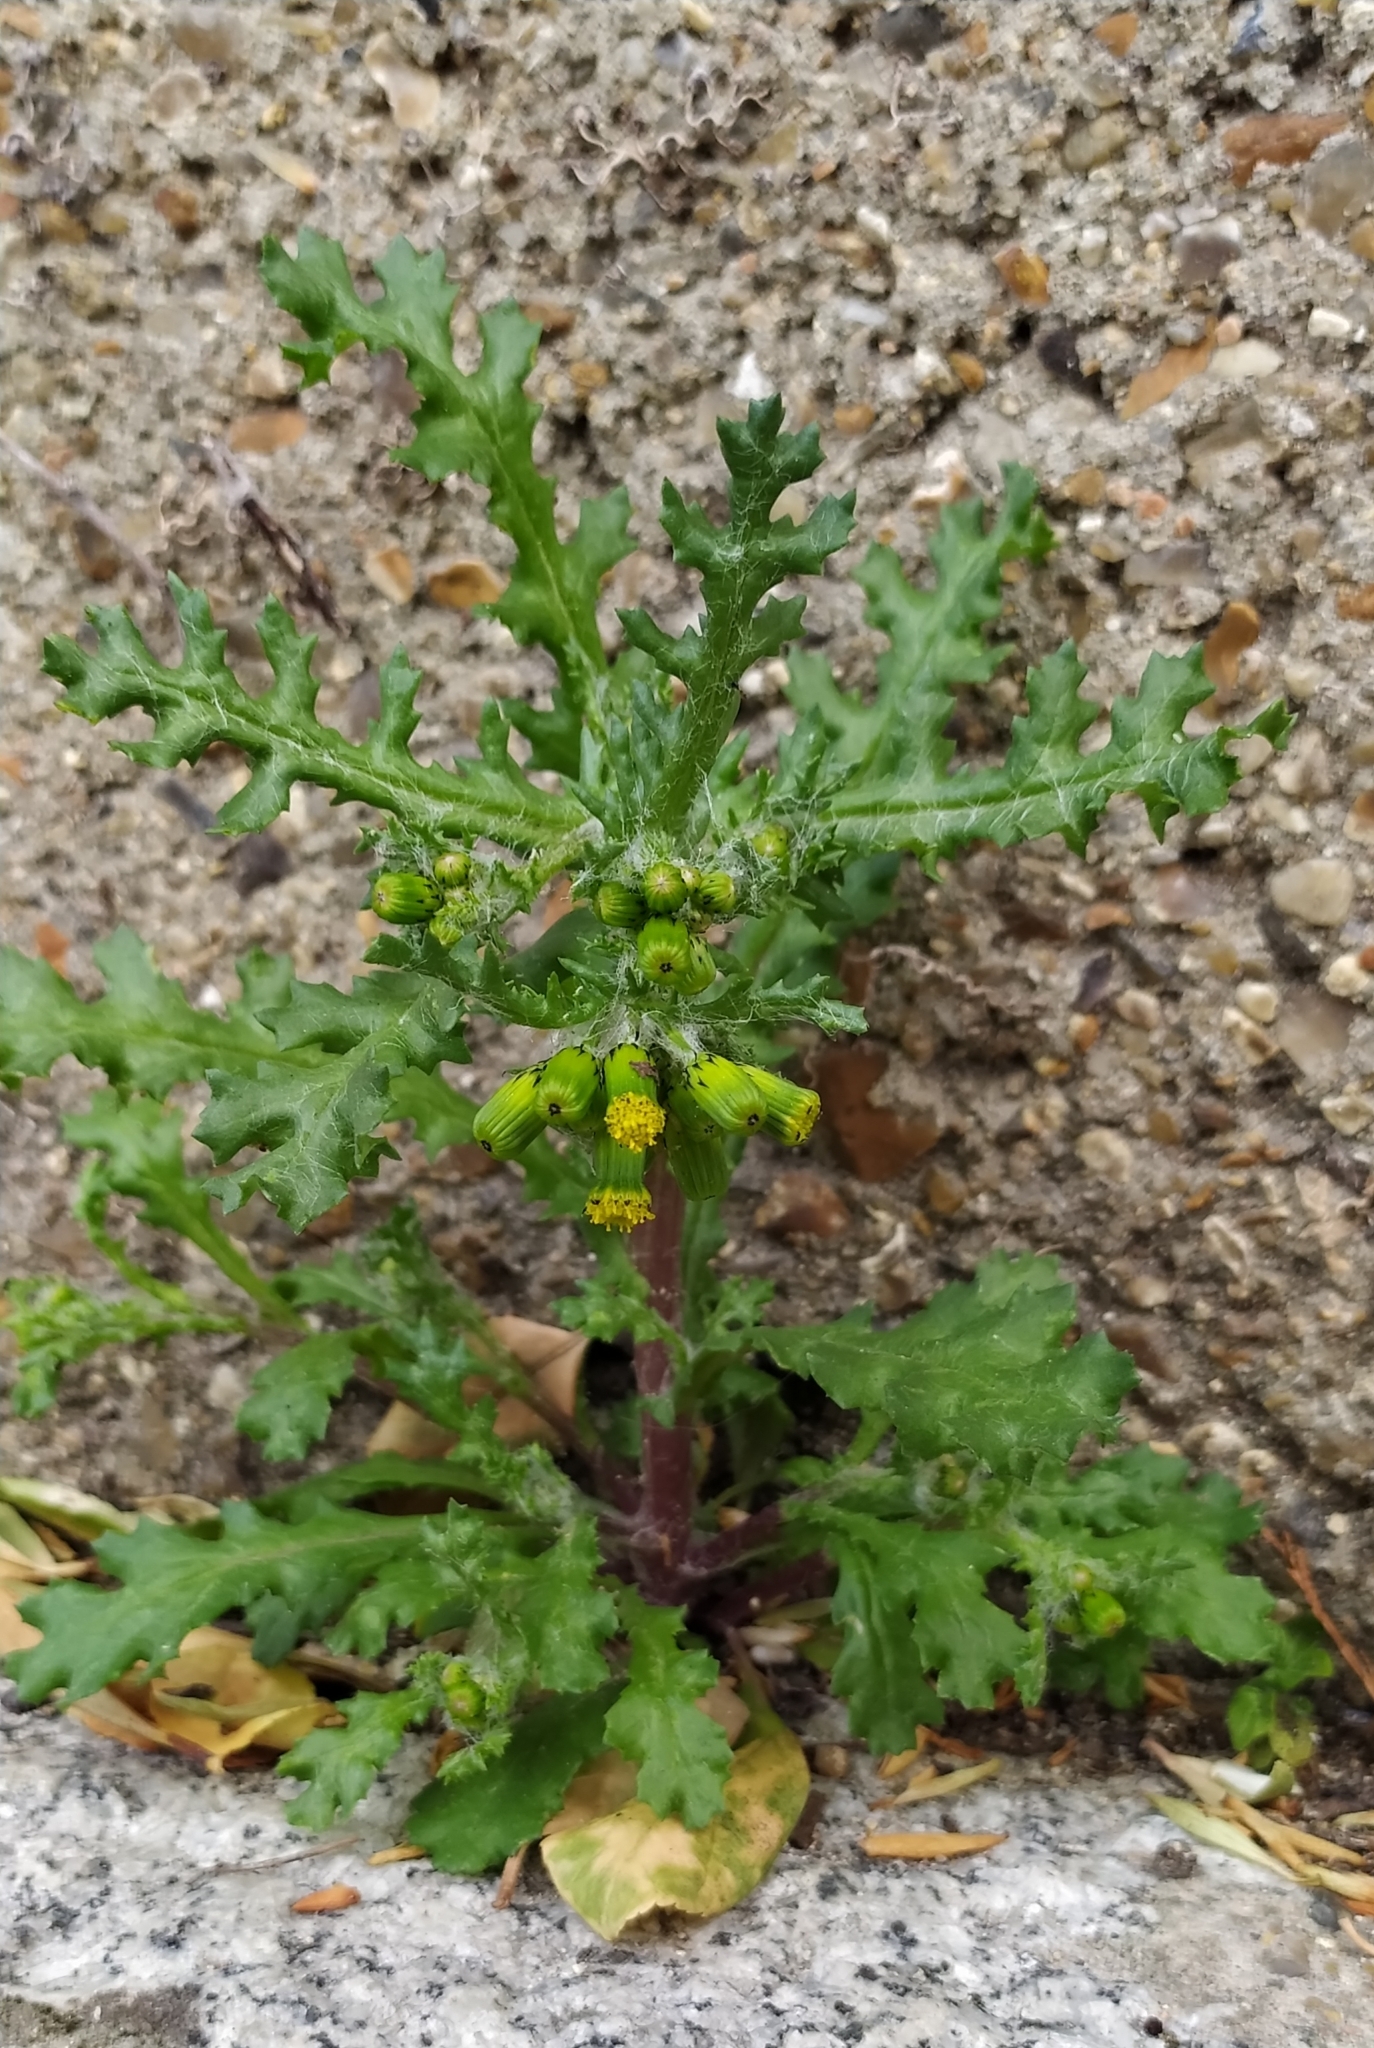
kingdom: Plantae
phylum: Tracheophyta
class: Magnoliopsida
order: Asterales
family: Asteraceae
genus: Senecio
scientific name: Senecio vulgaris
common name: Old-man-in-the-spring
